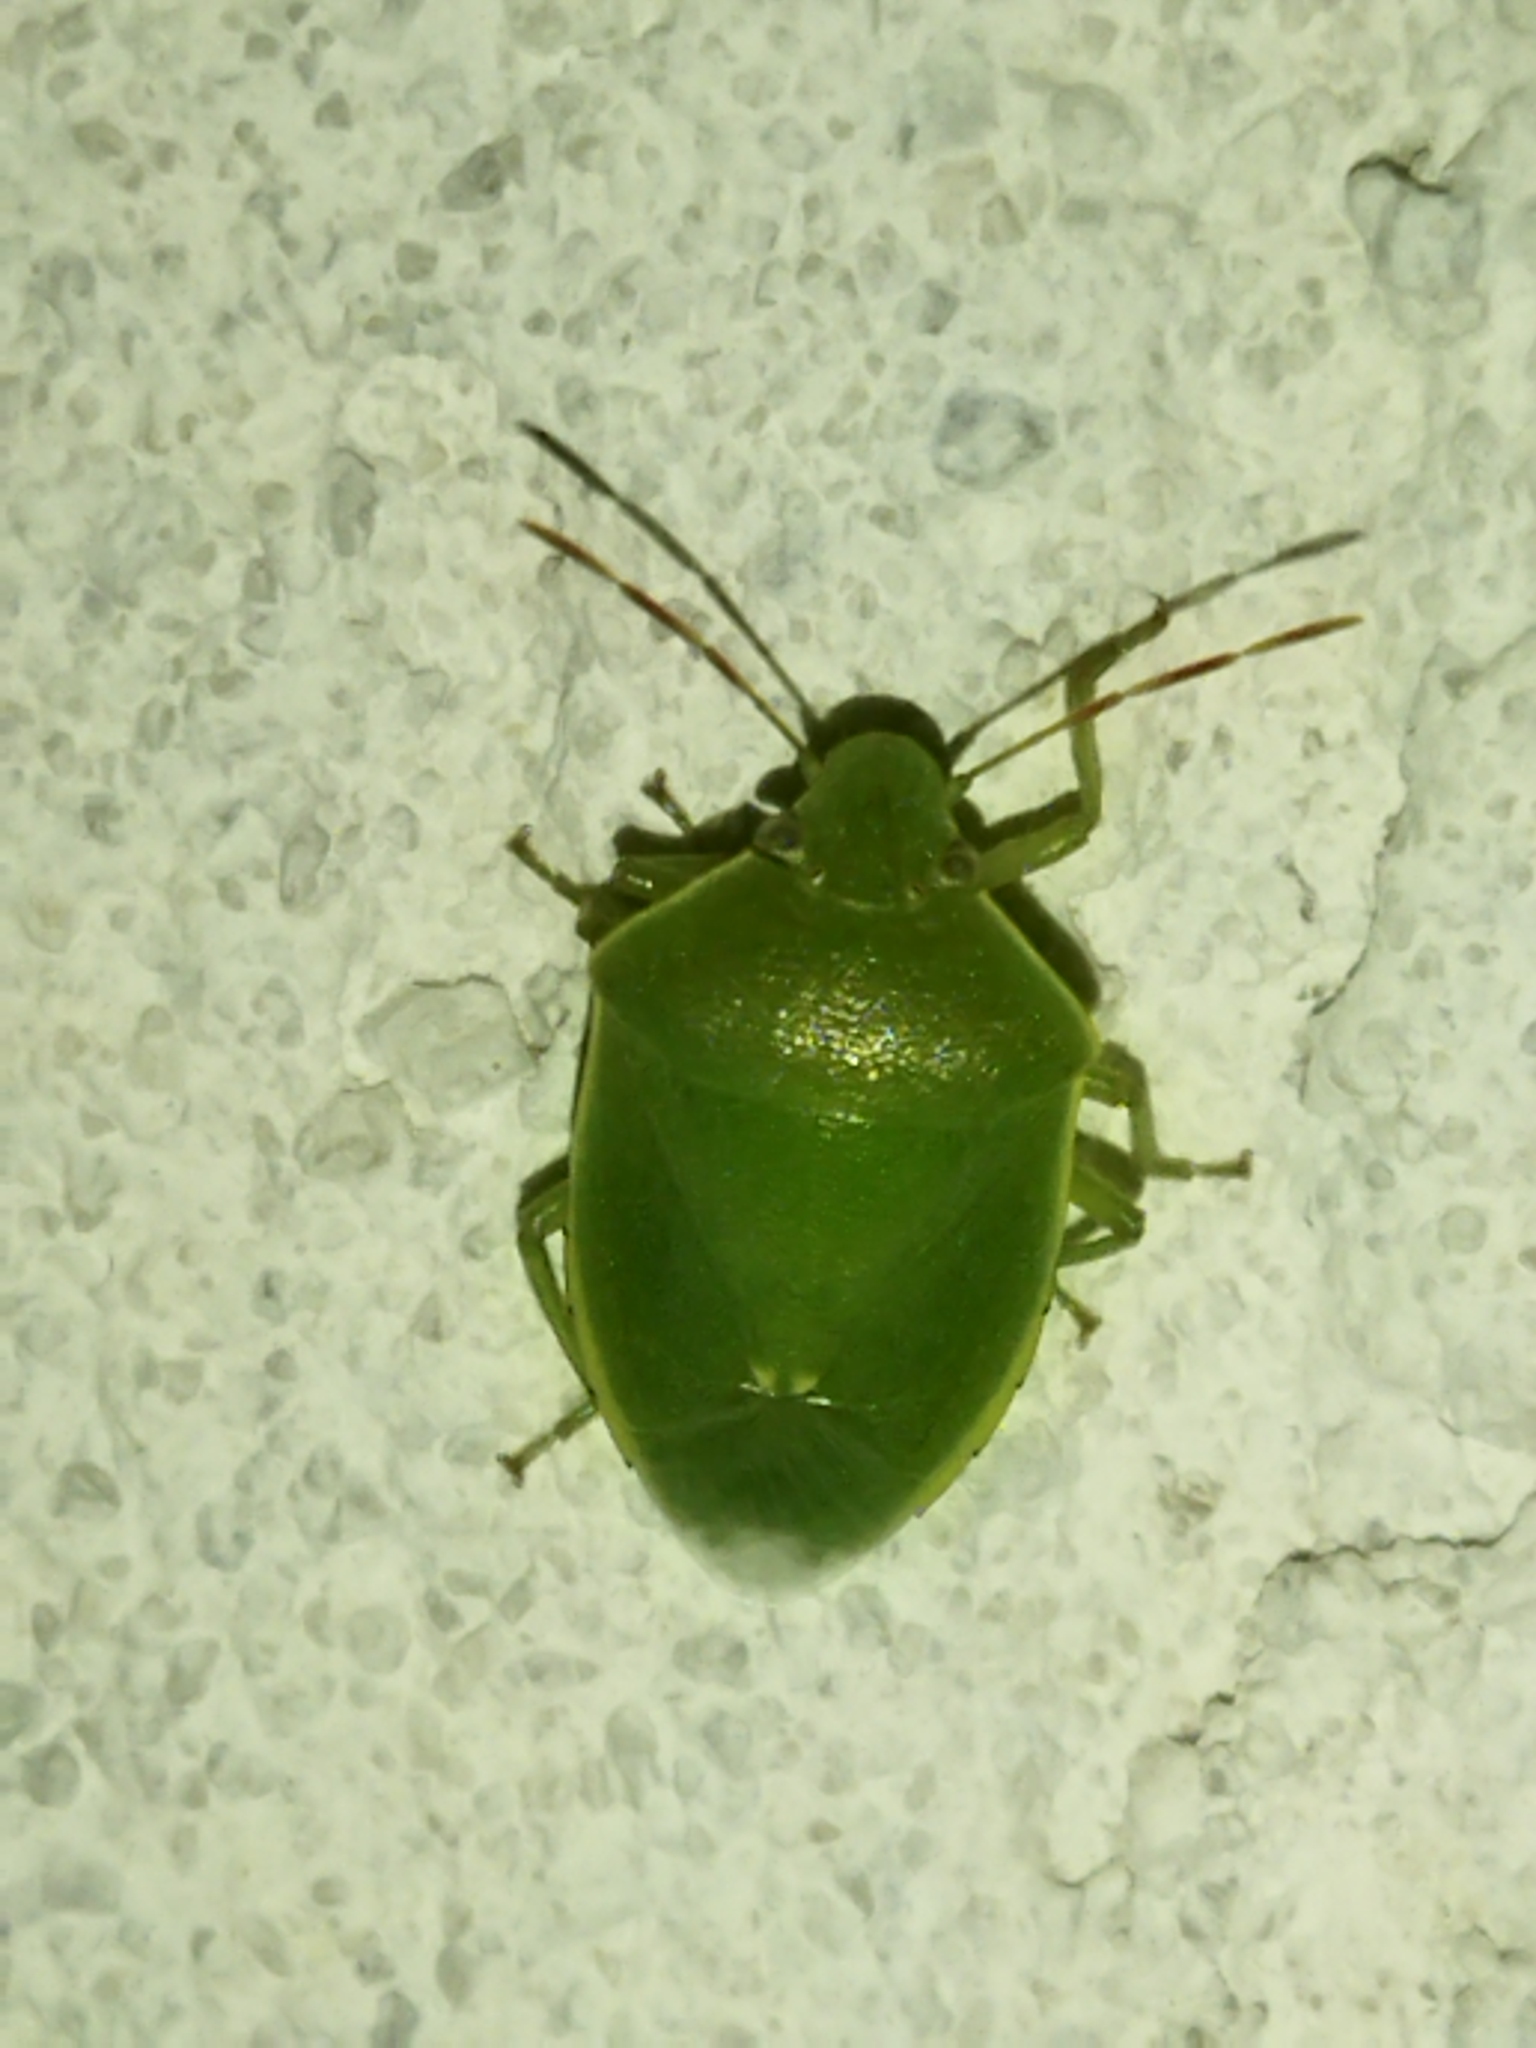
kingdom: Animalia
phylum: Arthropoda
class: Insecta
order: Hemiptera
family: Pentatomidae
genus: Acrosternum
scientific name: Acrosternum heegeri
